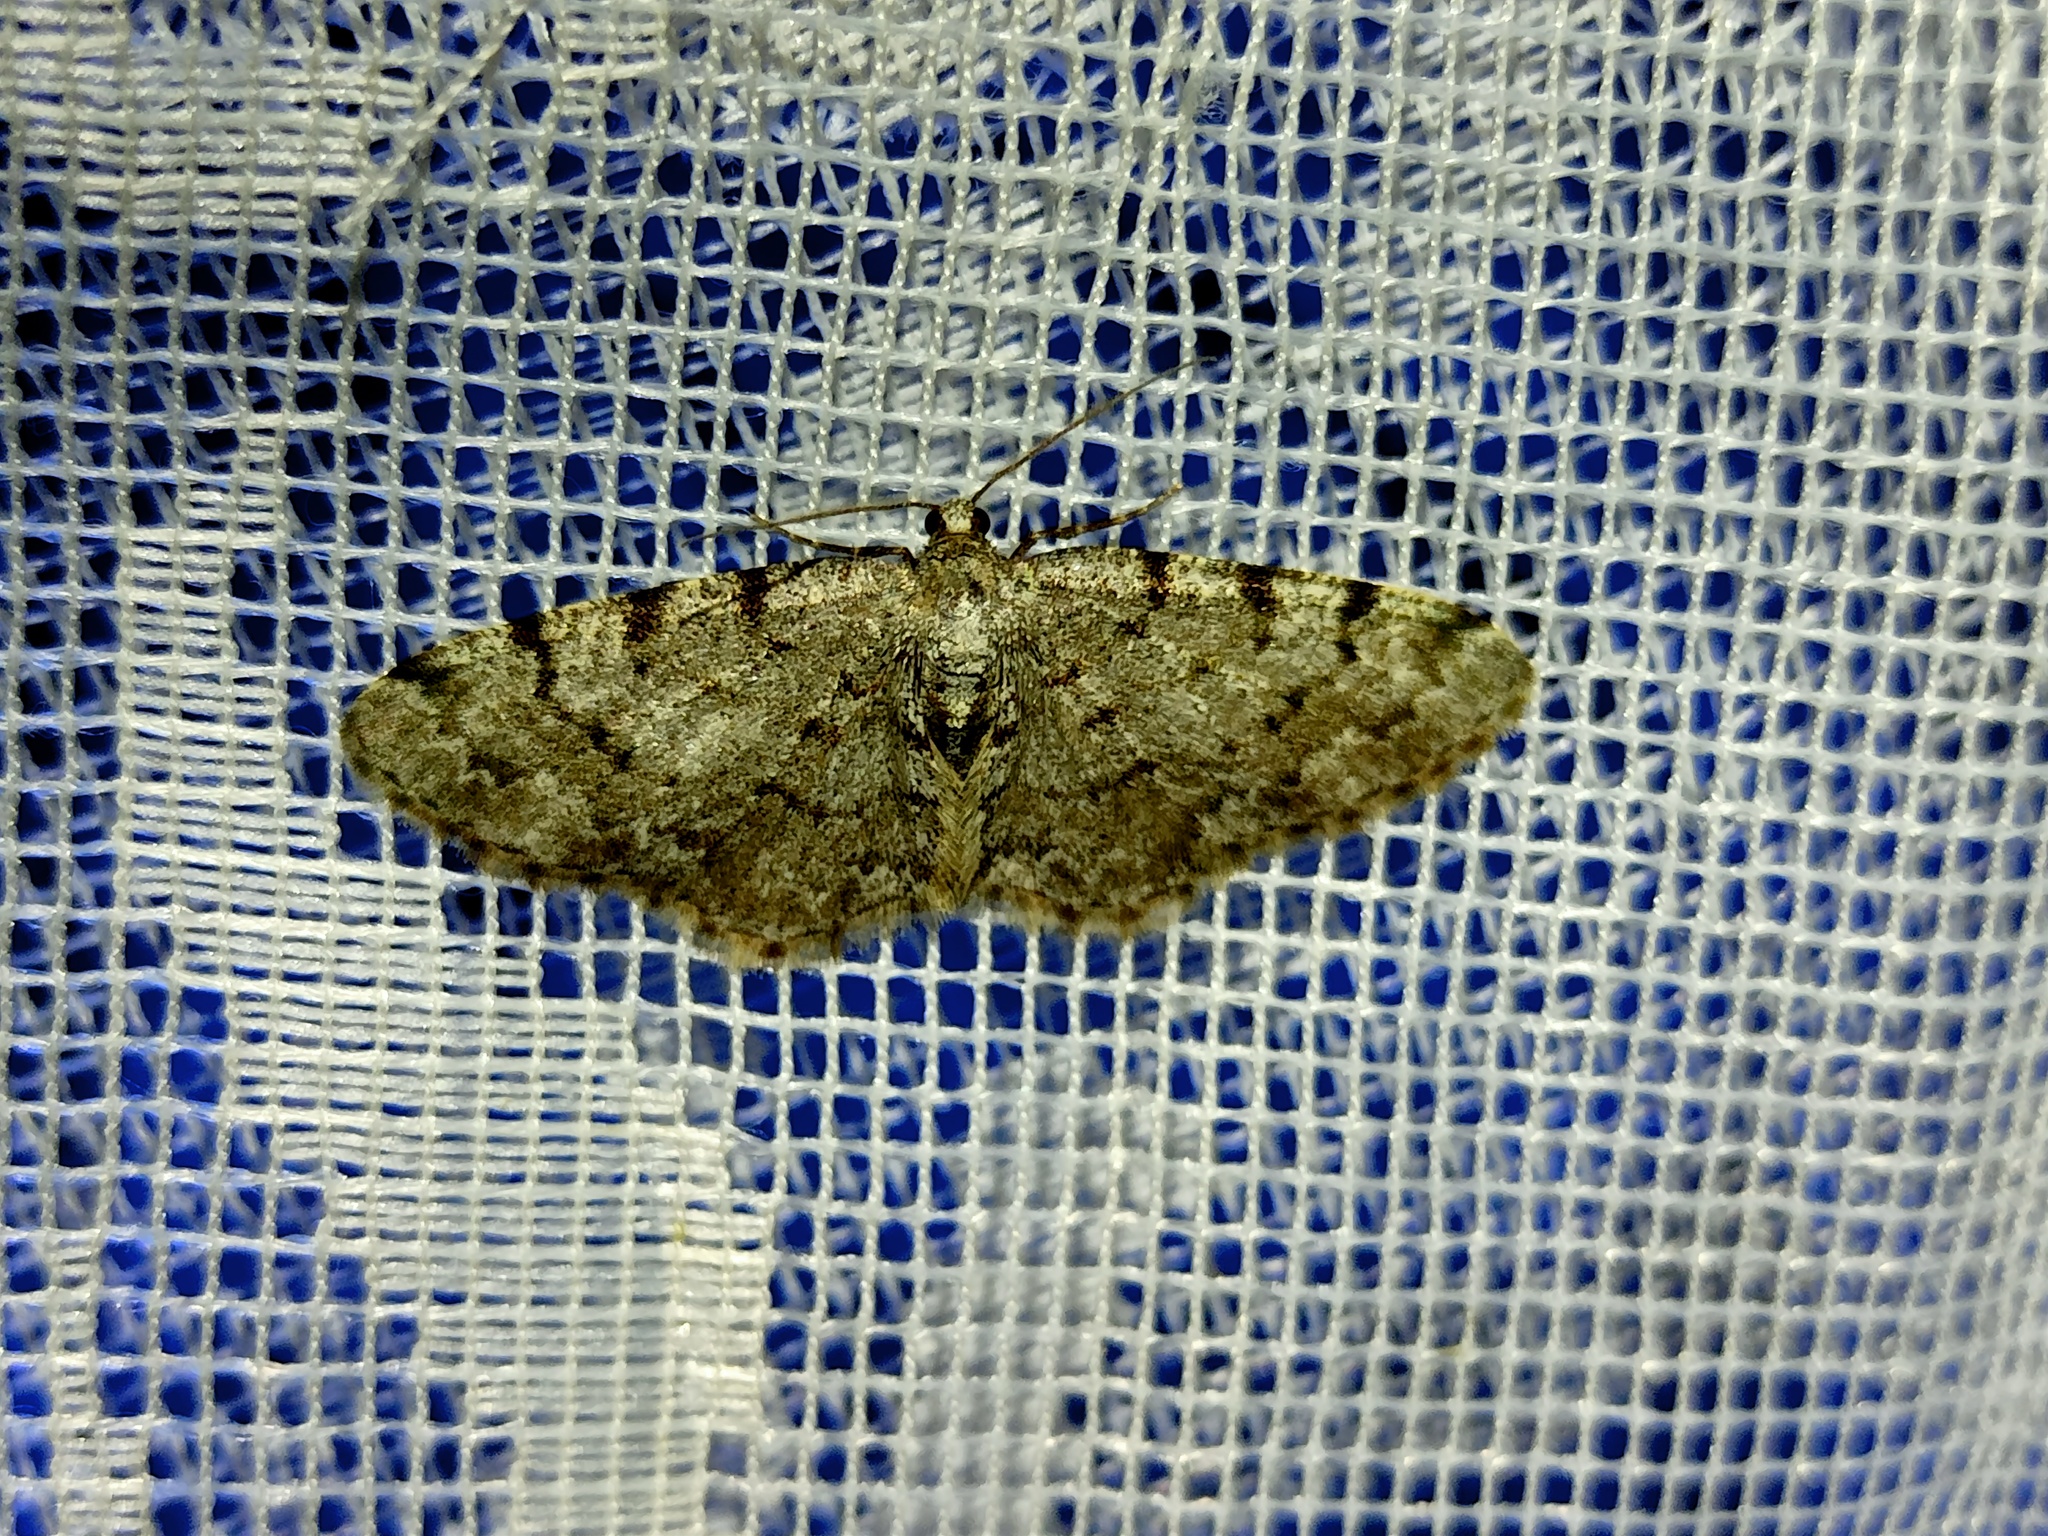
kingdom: Animalia
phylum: Arthropoda
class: Insecta
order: Lepidoptera
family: Geometridae
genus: Aethalura
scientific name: Aethalura punctulata
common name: Grey birch
